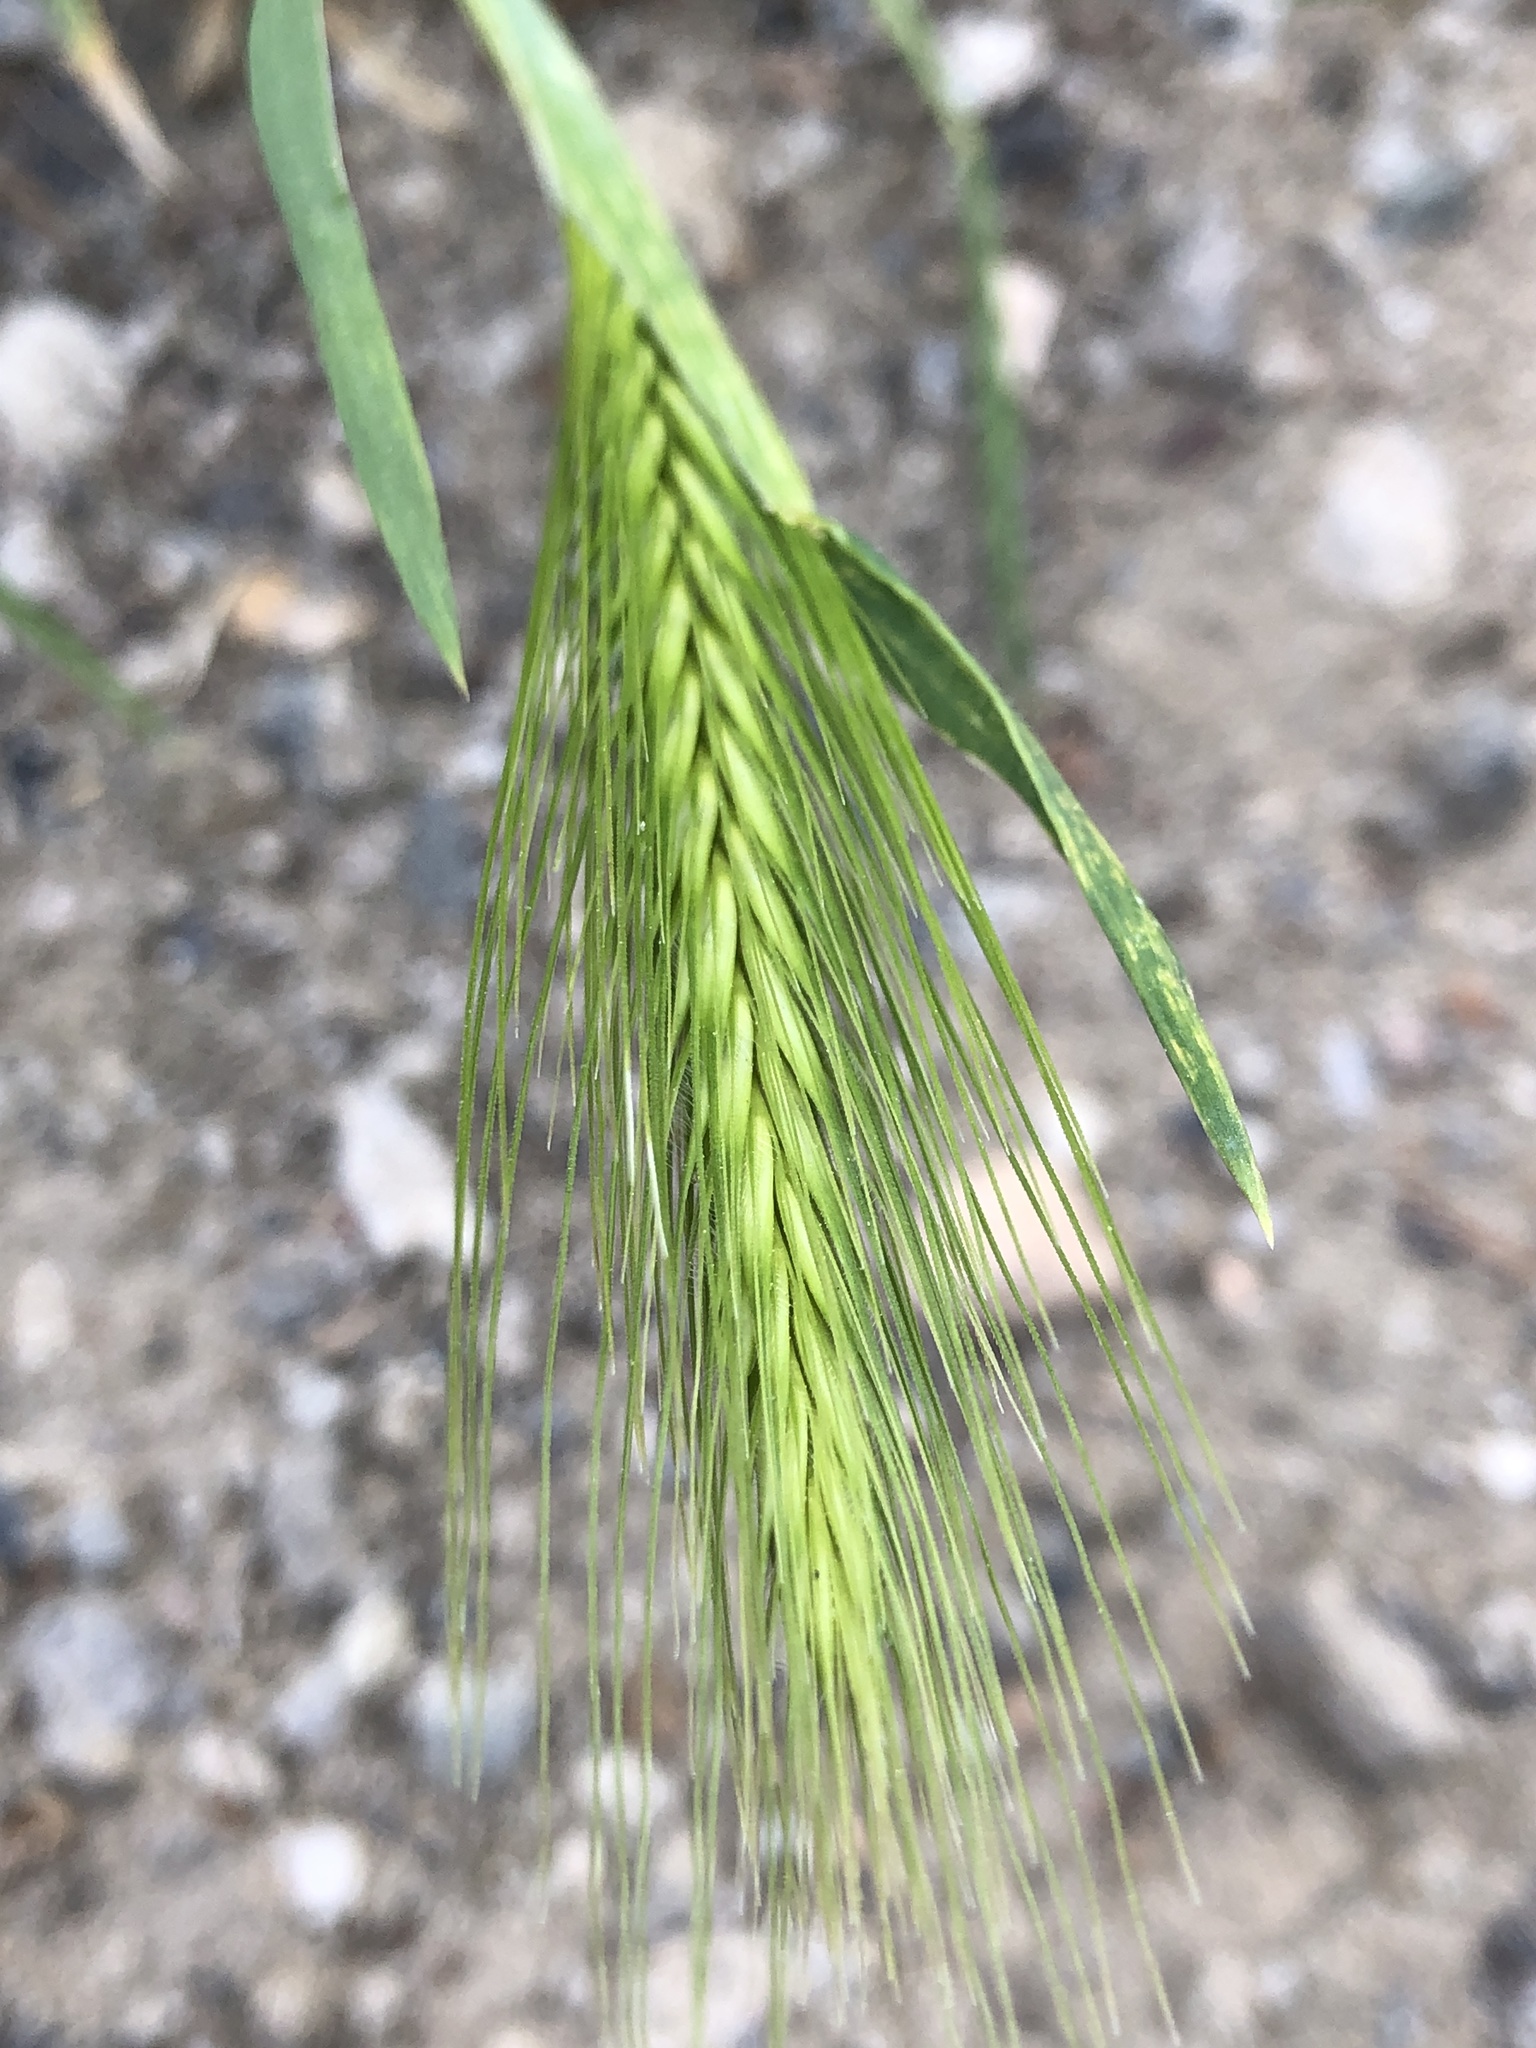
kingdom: Plantae
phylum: Tracheophyta
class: Liliopsida
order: Poales
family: Poaceae
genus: Hordeum
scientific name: Hordeum murinum
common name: Wall barley
